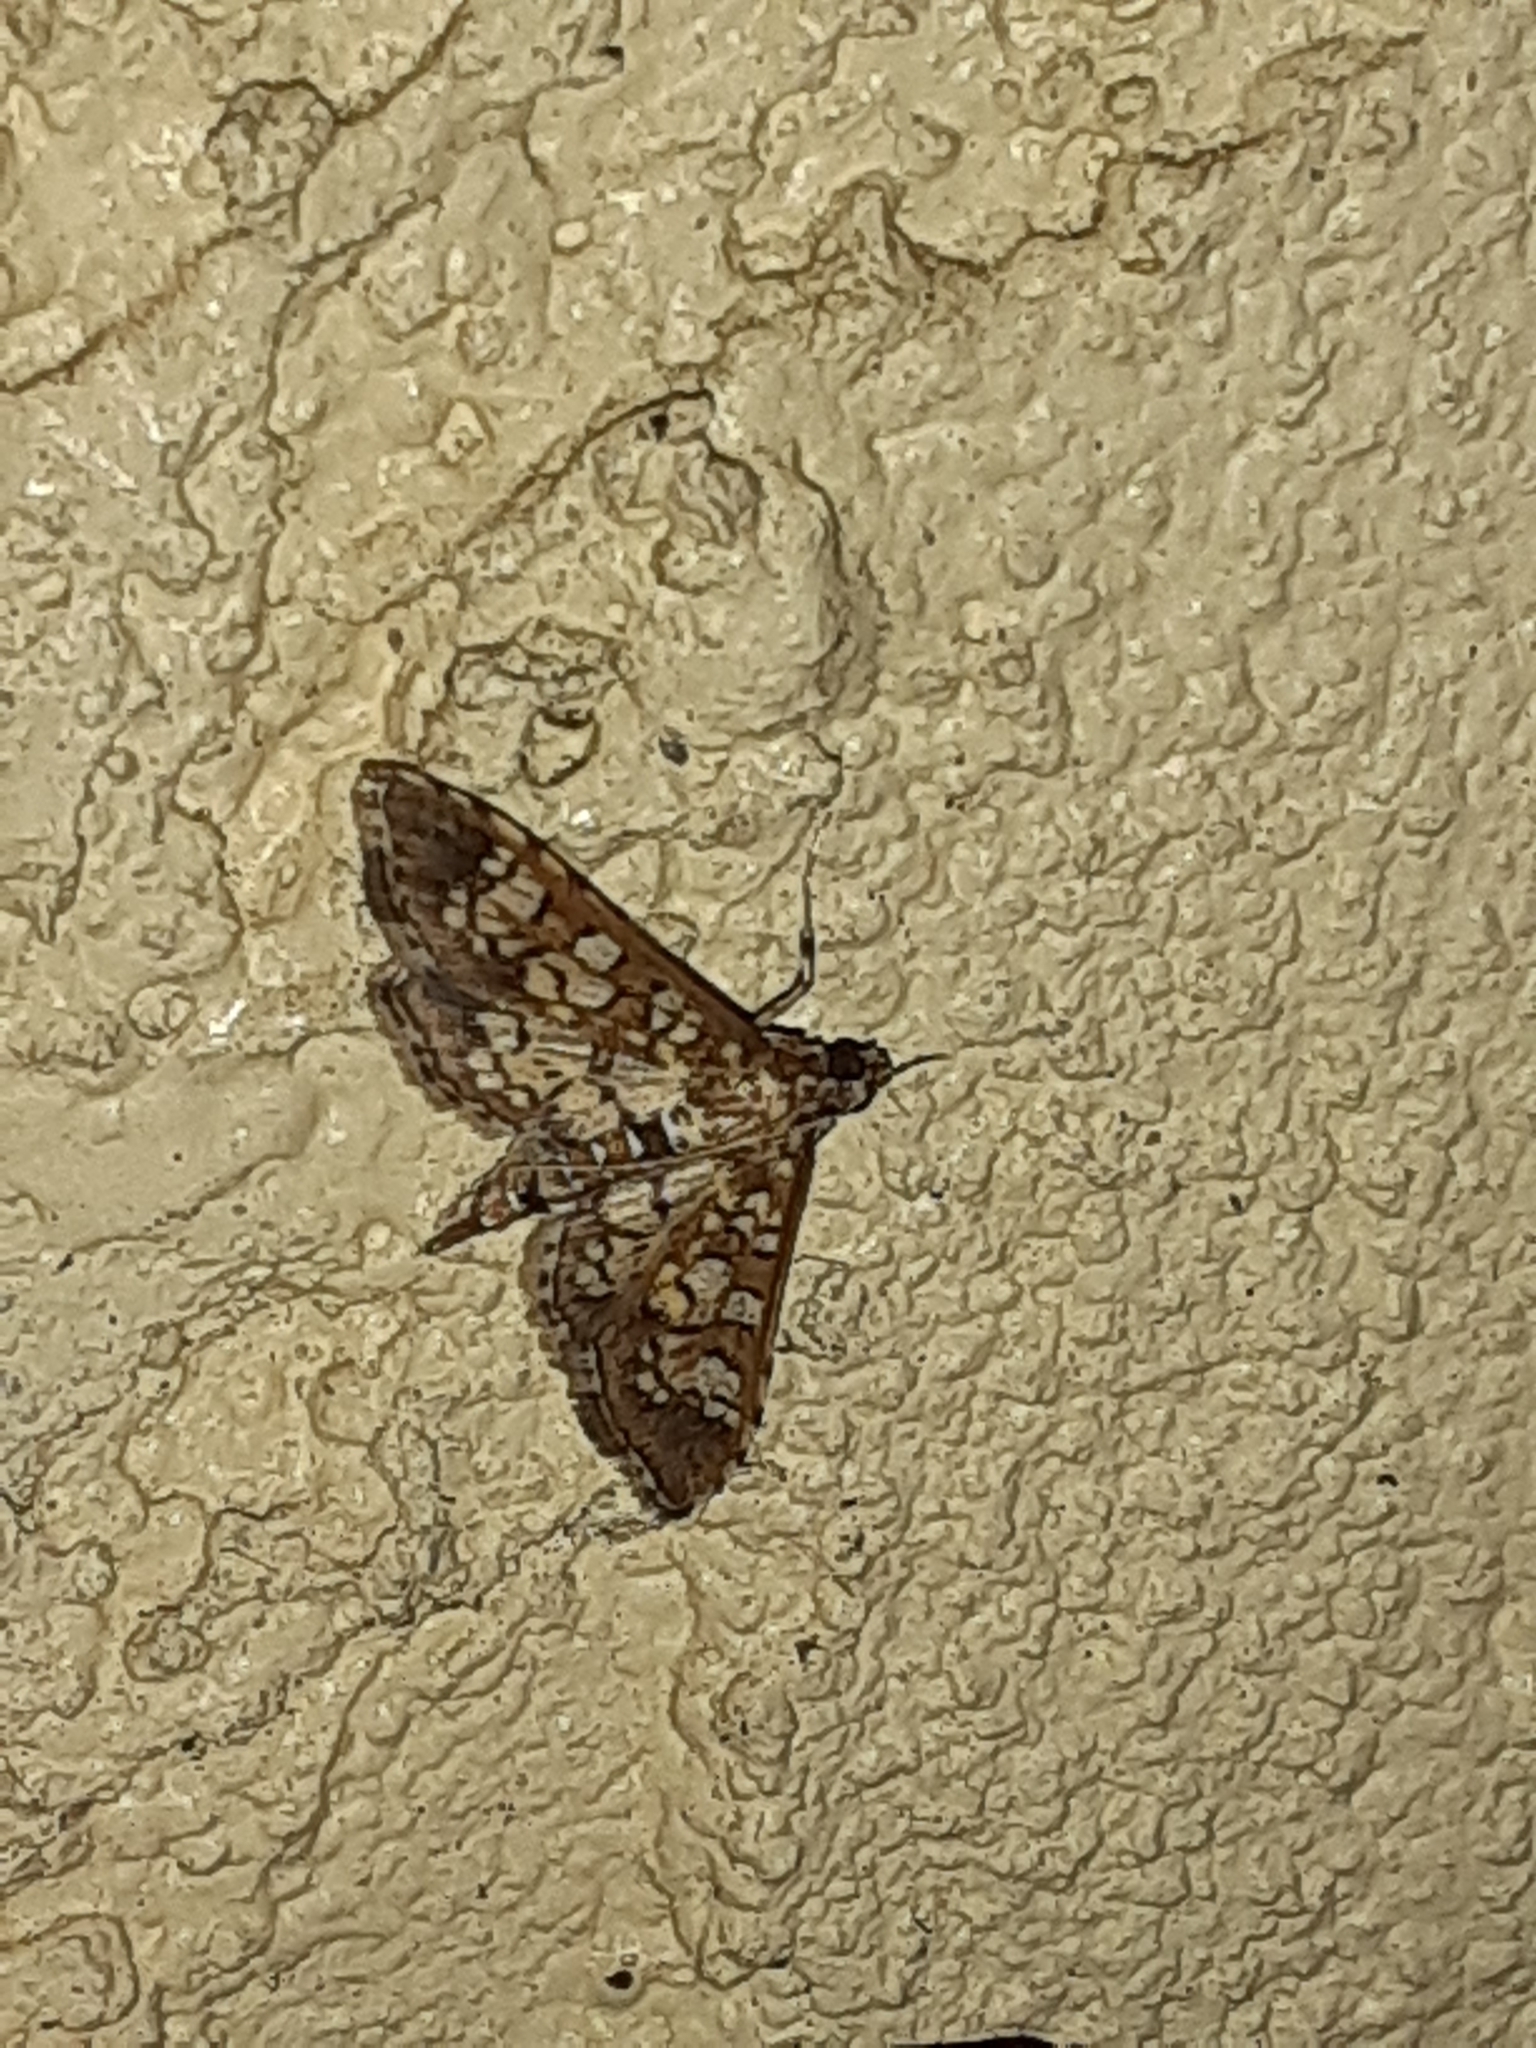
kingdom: Animalia
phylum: Arthropoda
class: Insecta
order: Lepidoptera
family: Crambidae
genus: Samea
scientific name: Samea ecclesialis
